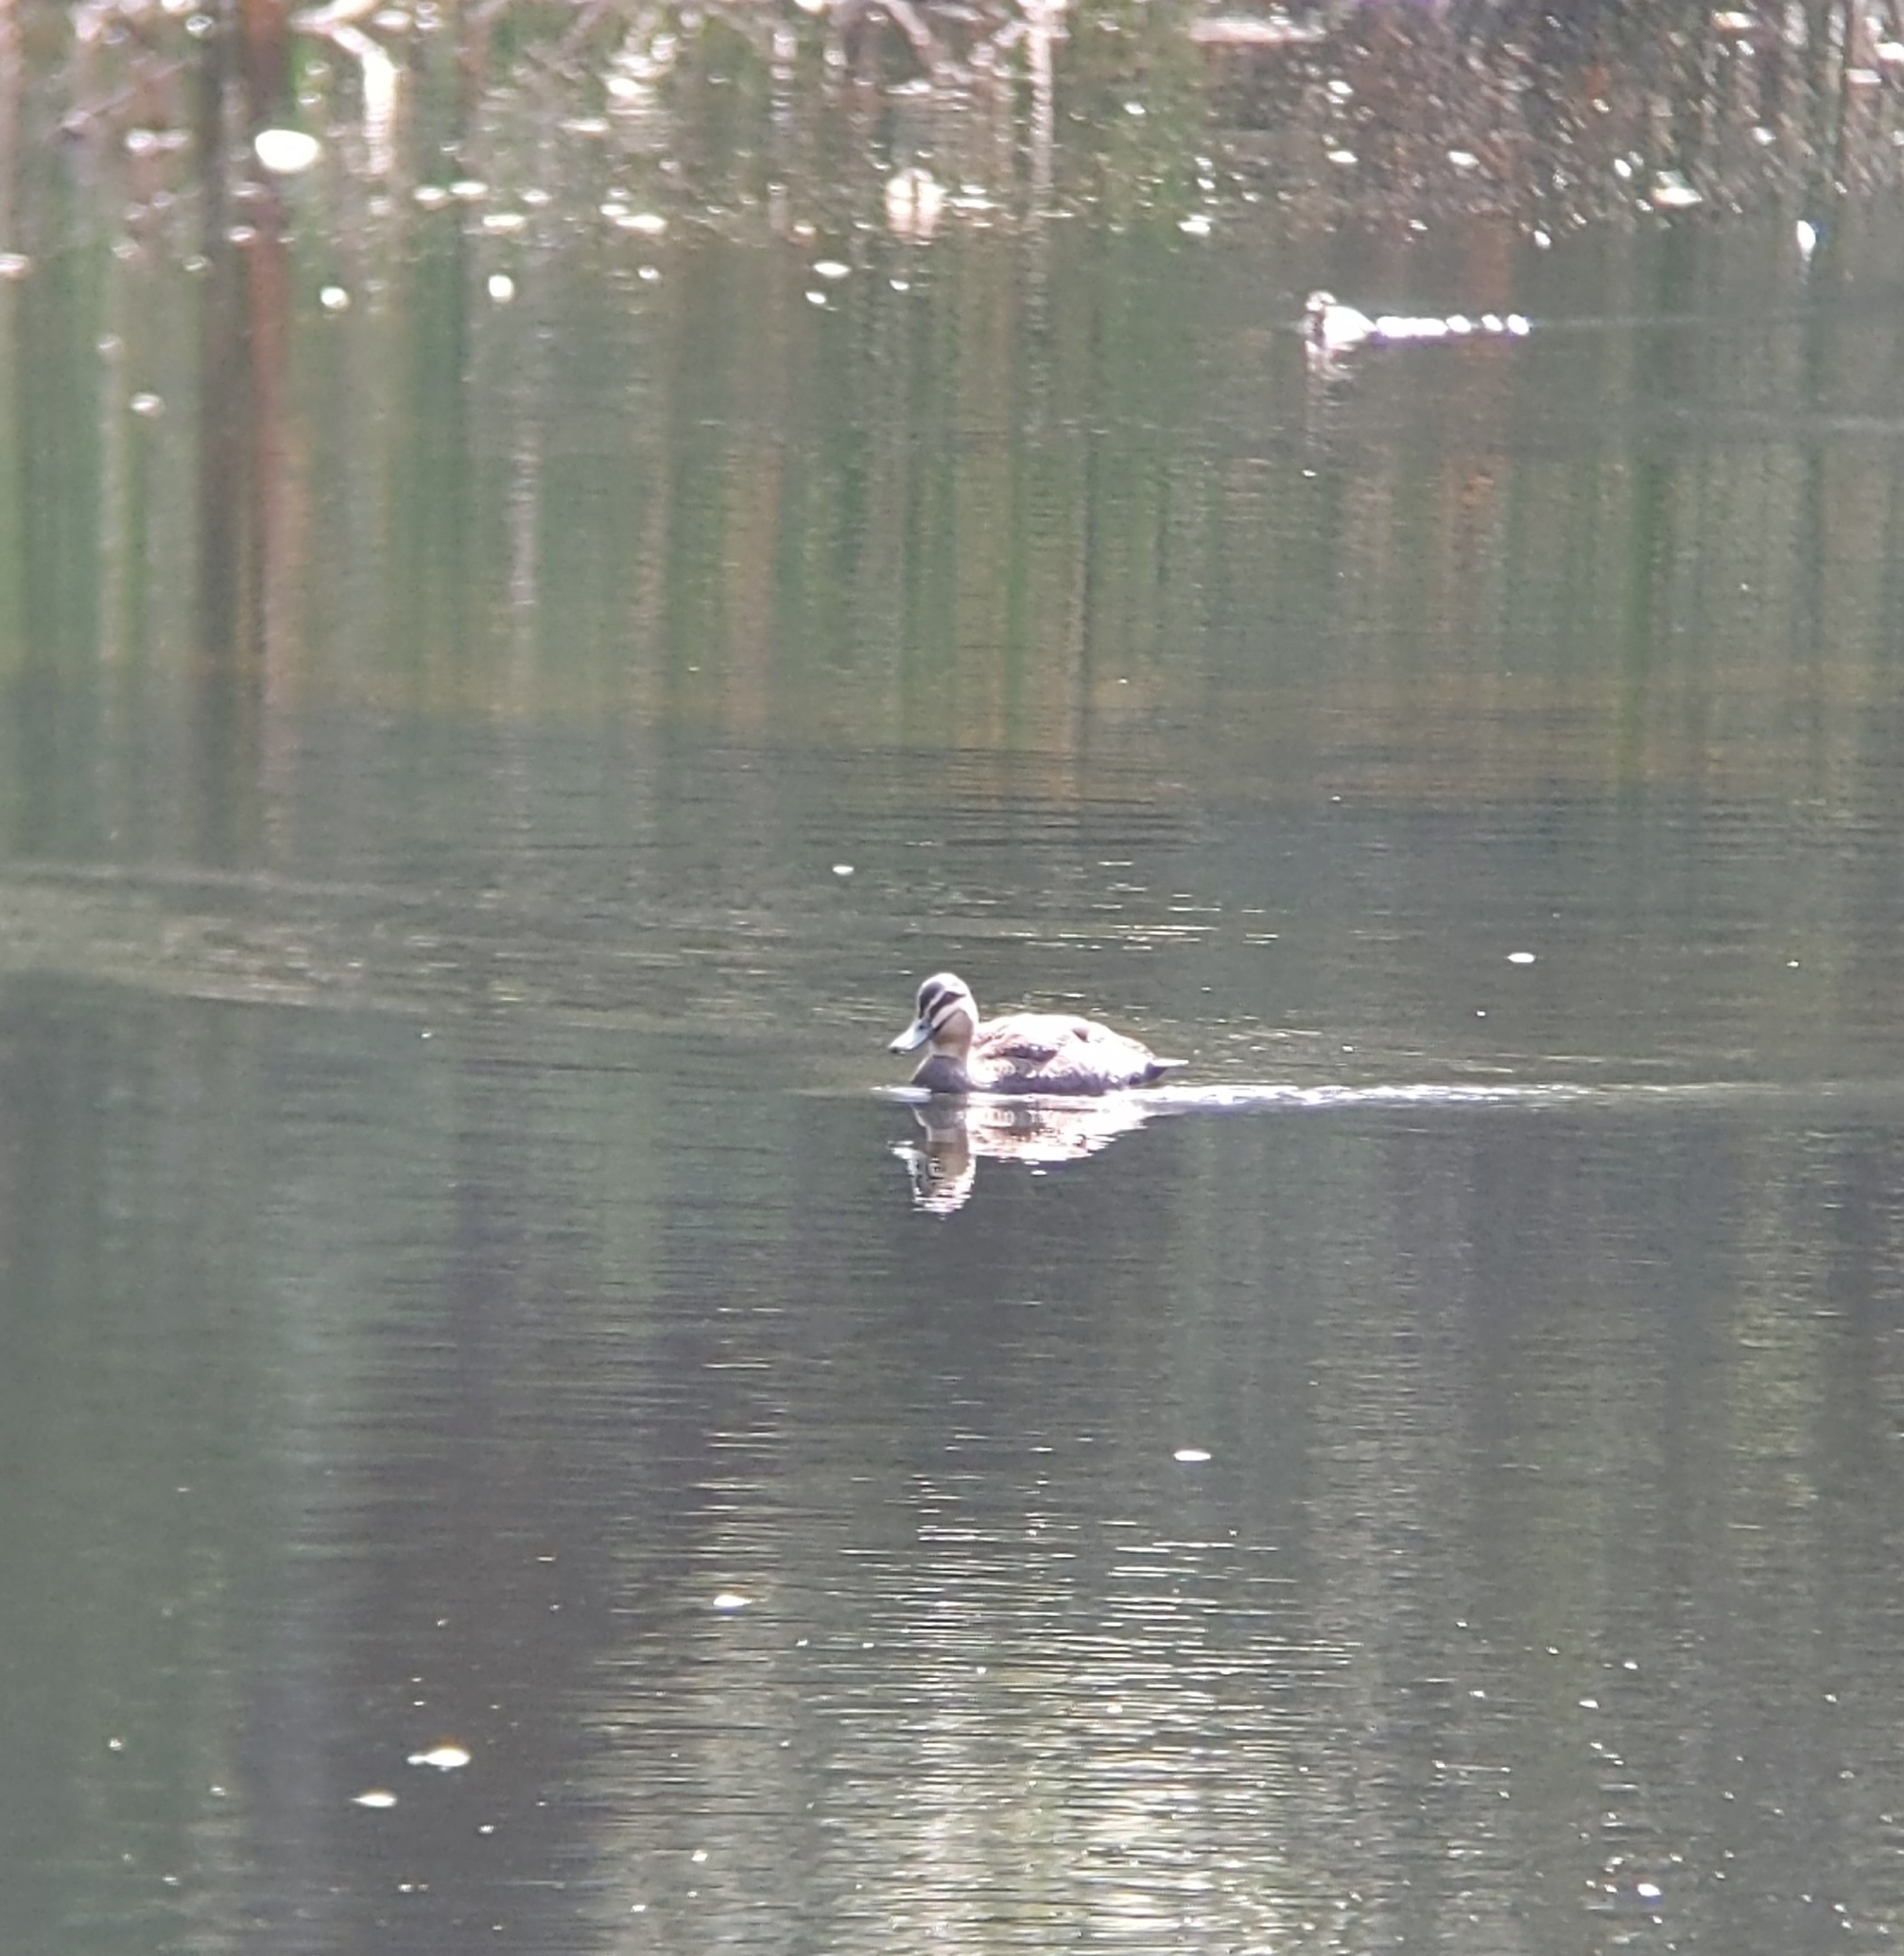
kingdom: Animalia
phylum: Chordata
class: Aves
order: Anseriformes
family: Anatidae
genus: Anas
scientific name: Anas superciliosa
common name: Pacific black duck
